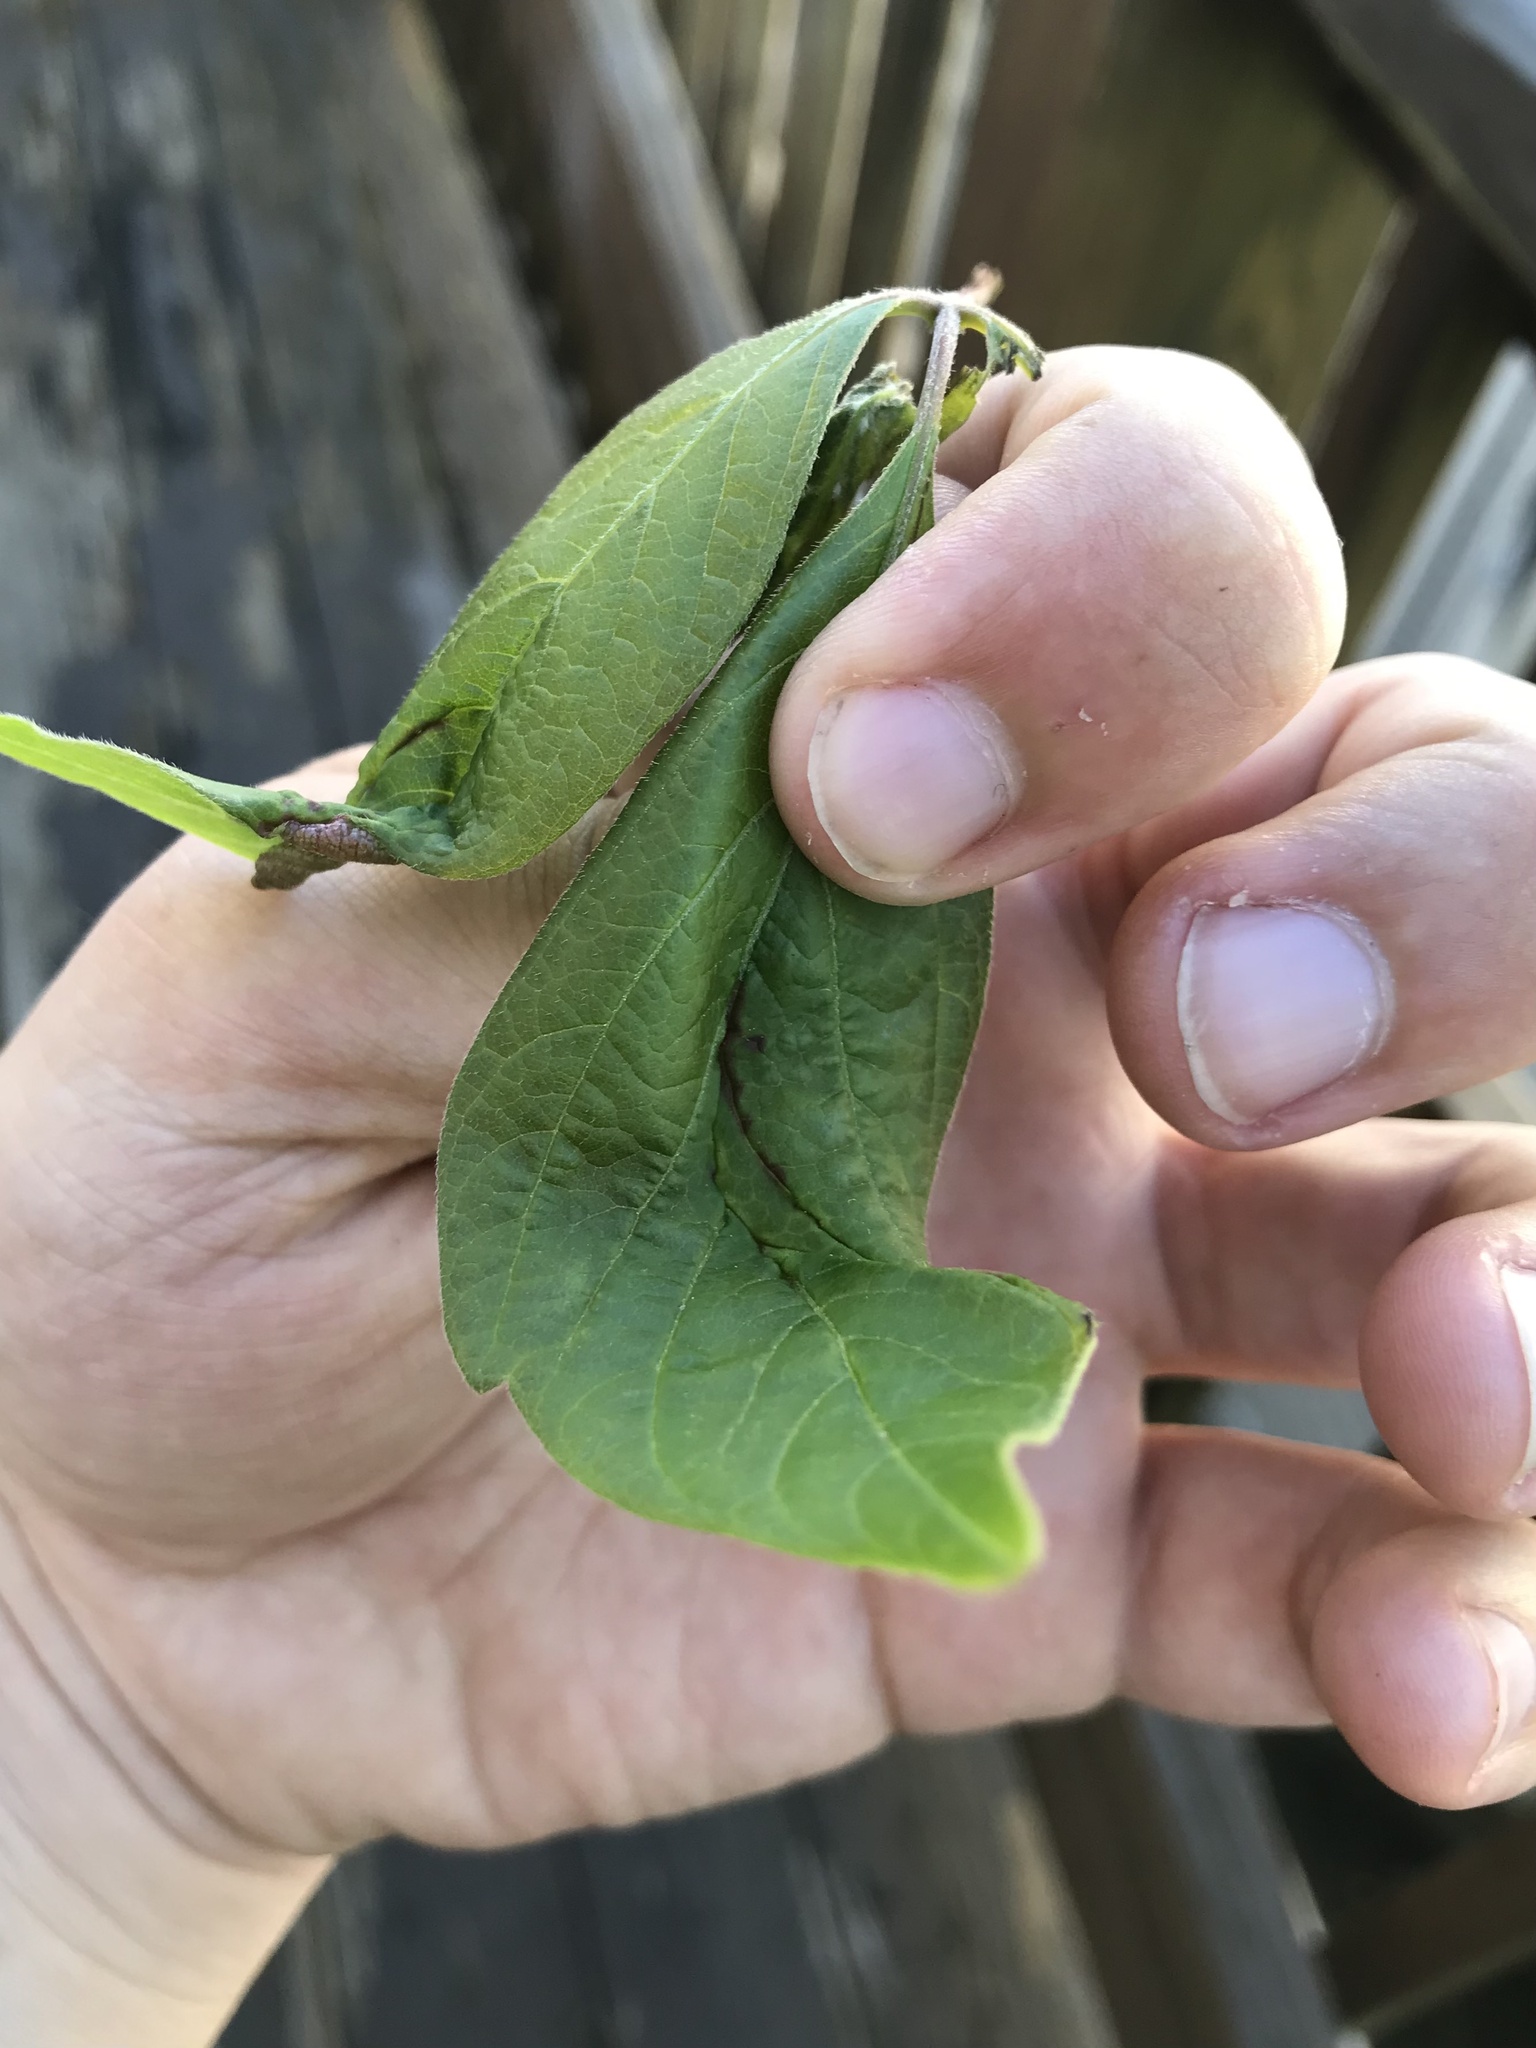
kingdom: Animalia
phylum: Arthropoda
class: Insecta
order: Diptera
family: Cecidomyiidae
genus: Contarinia
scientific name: Contarinia negundinis
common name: Boxelder budgall midge
